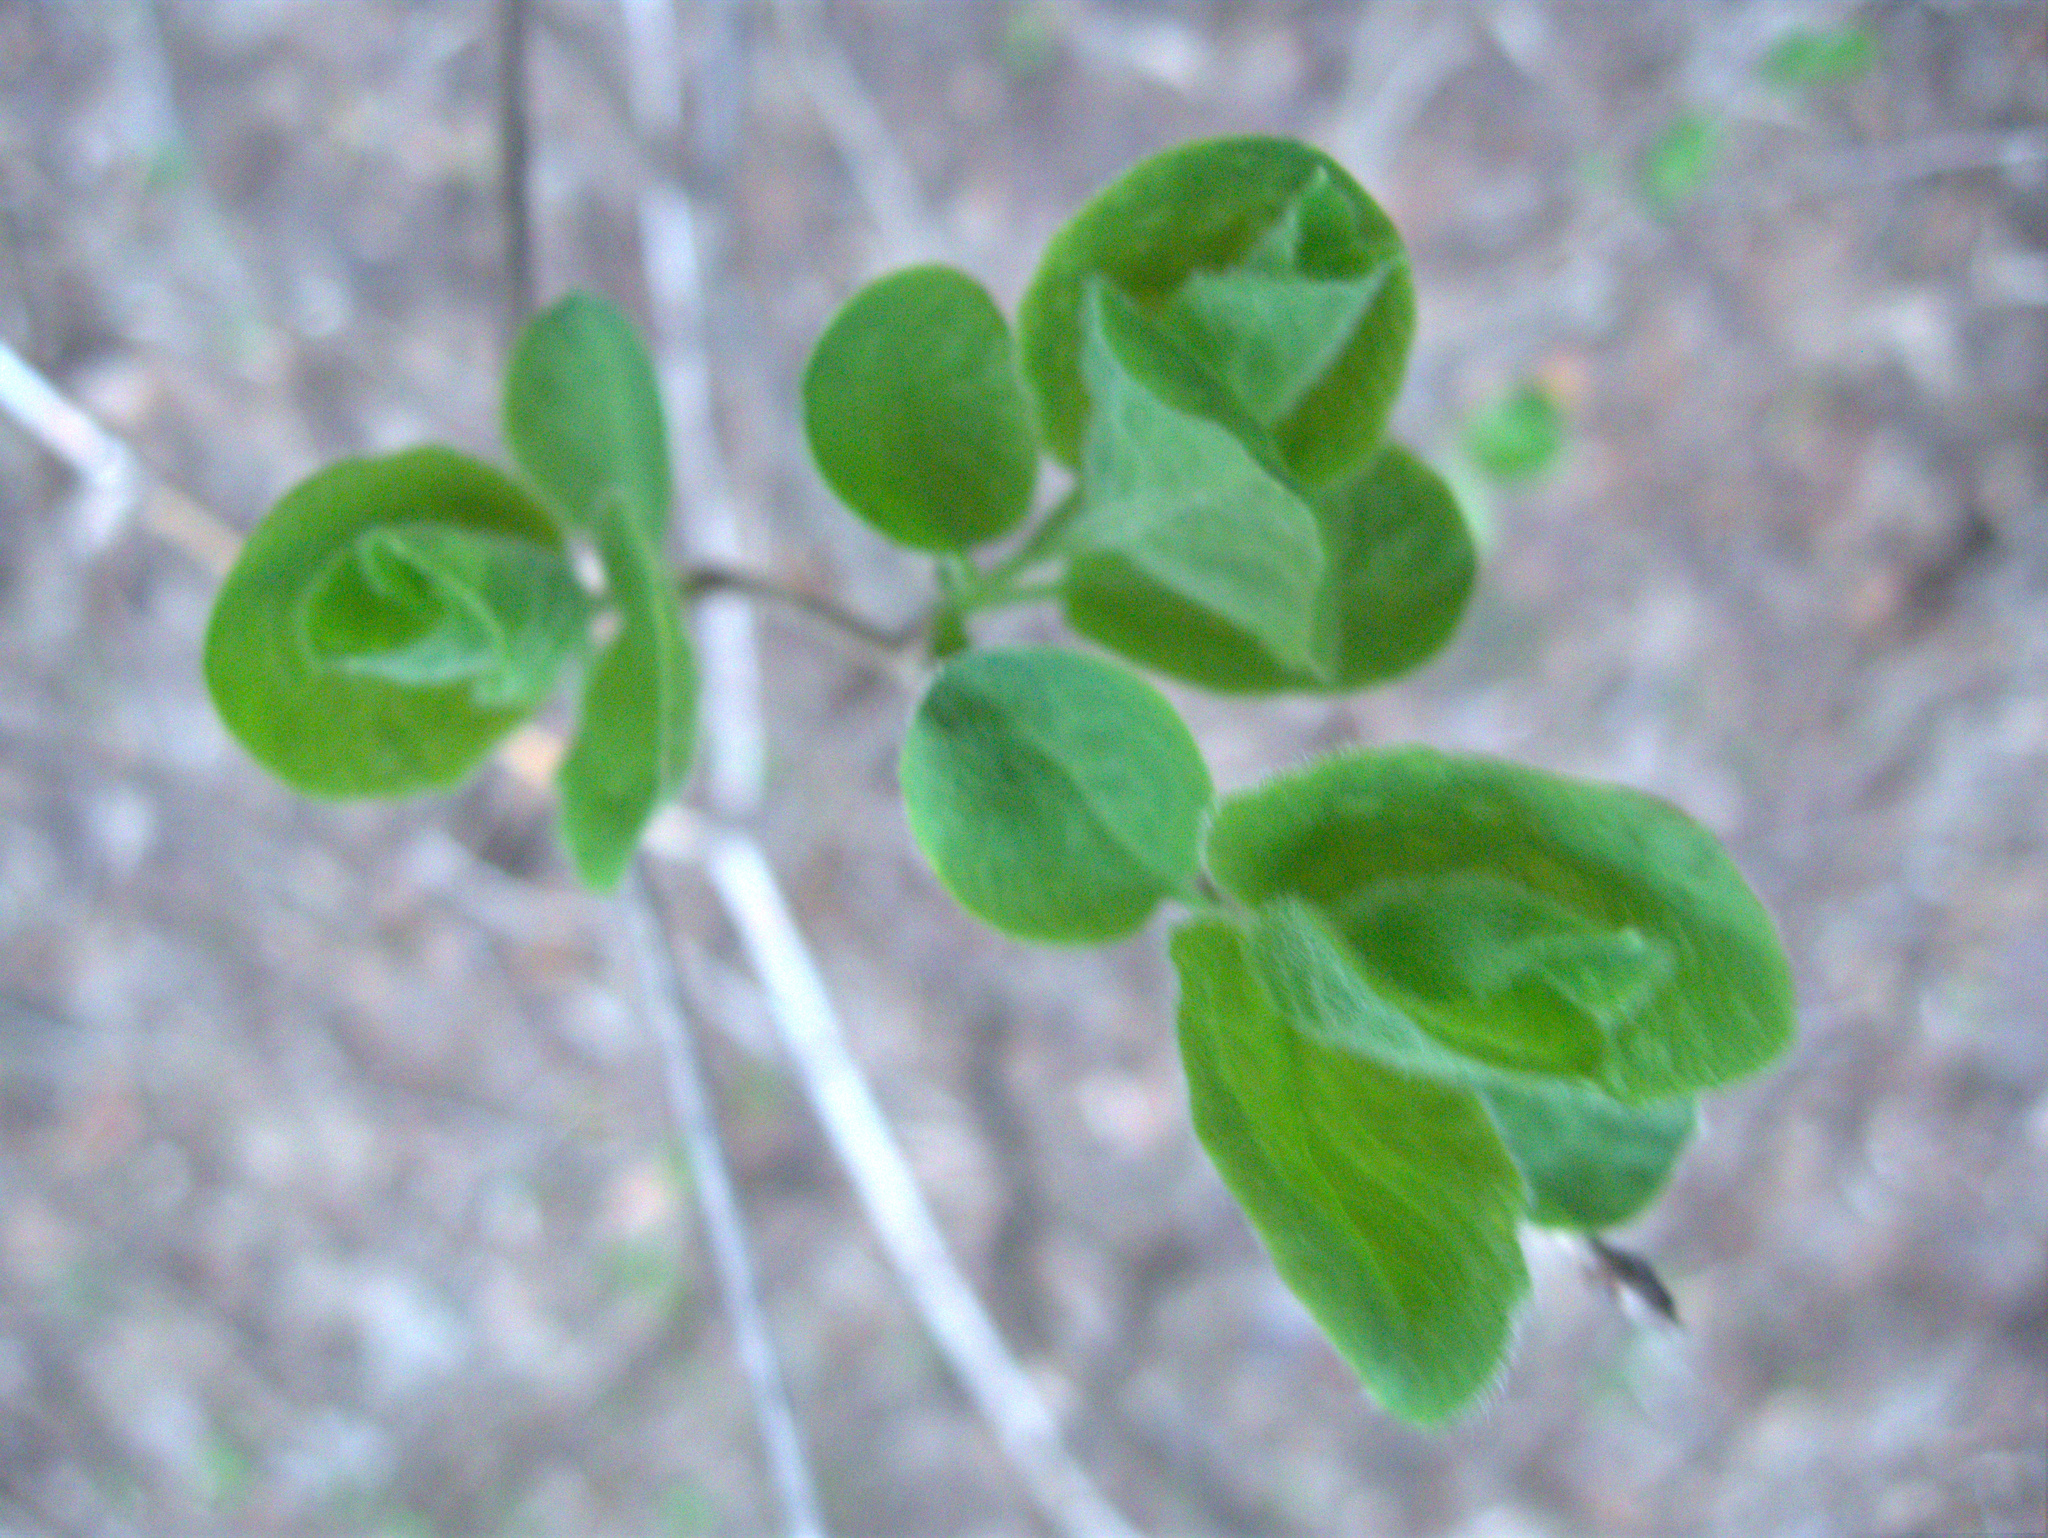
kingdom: Plantae
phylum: Tracheophyta
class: Magnoliopsida
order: Dipsacales
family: Caprifoliaceae
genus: Lonicera
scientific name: Lonicera xylosteum
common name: Fly honeysuckle
